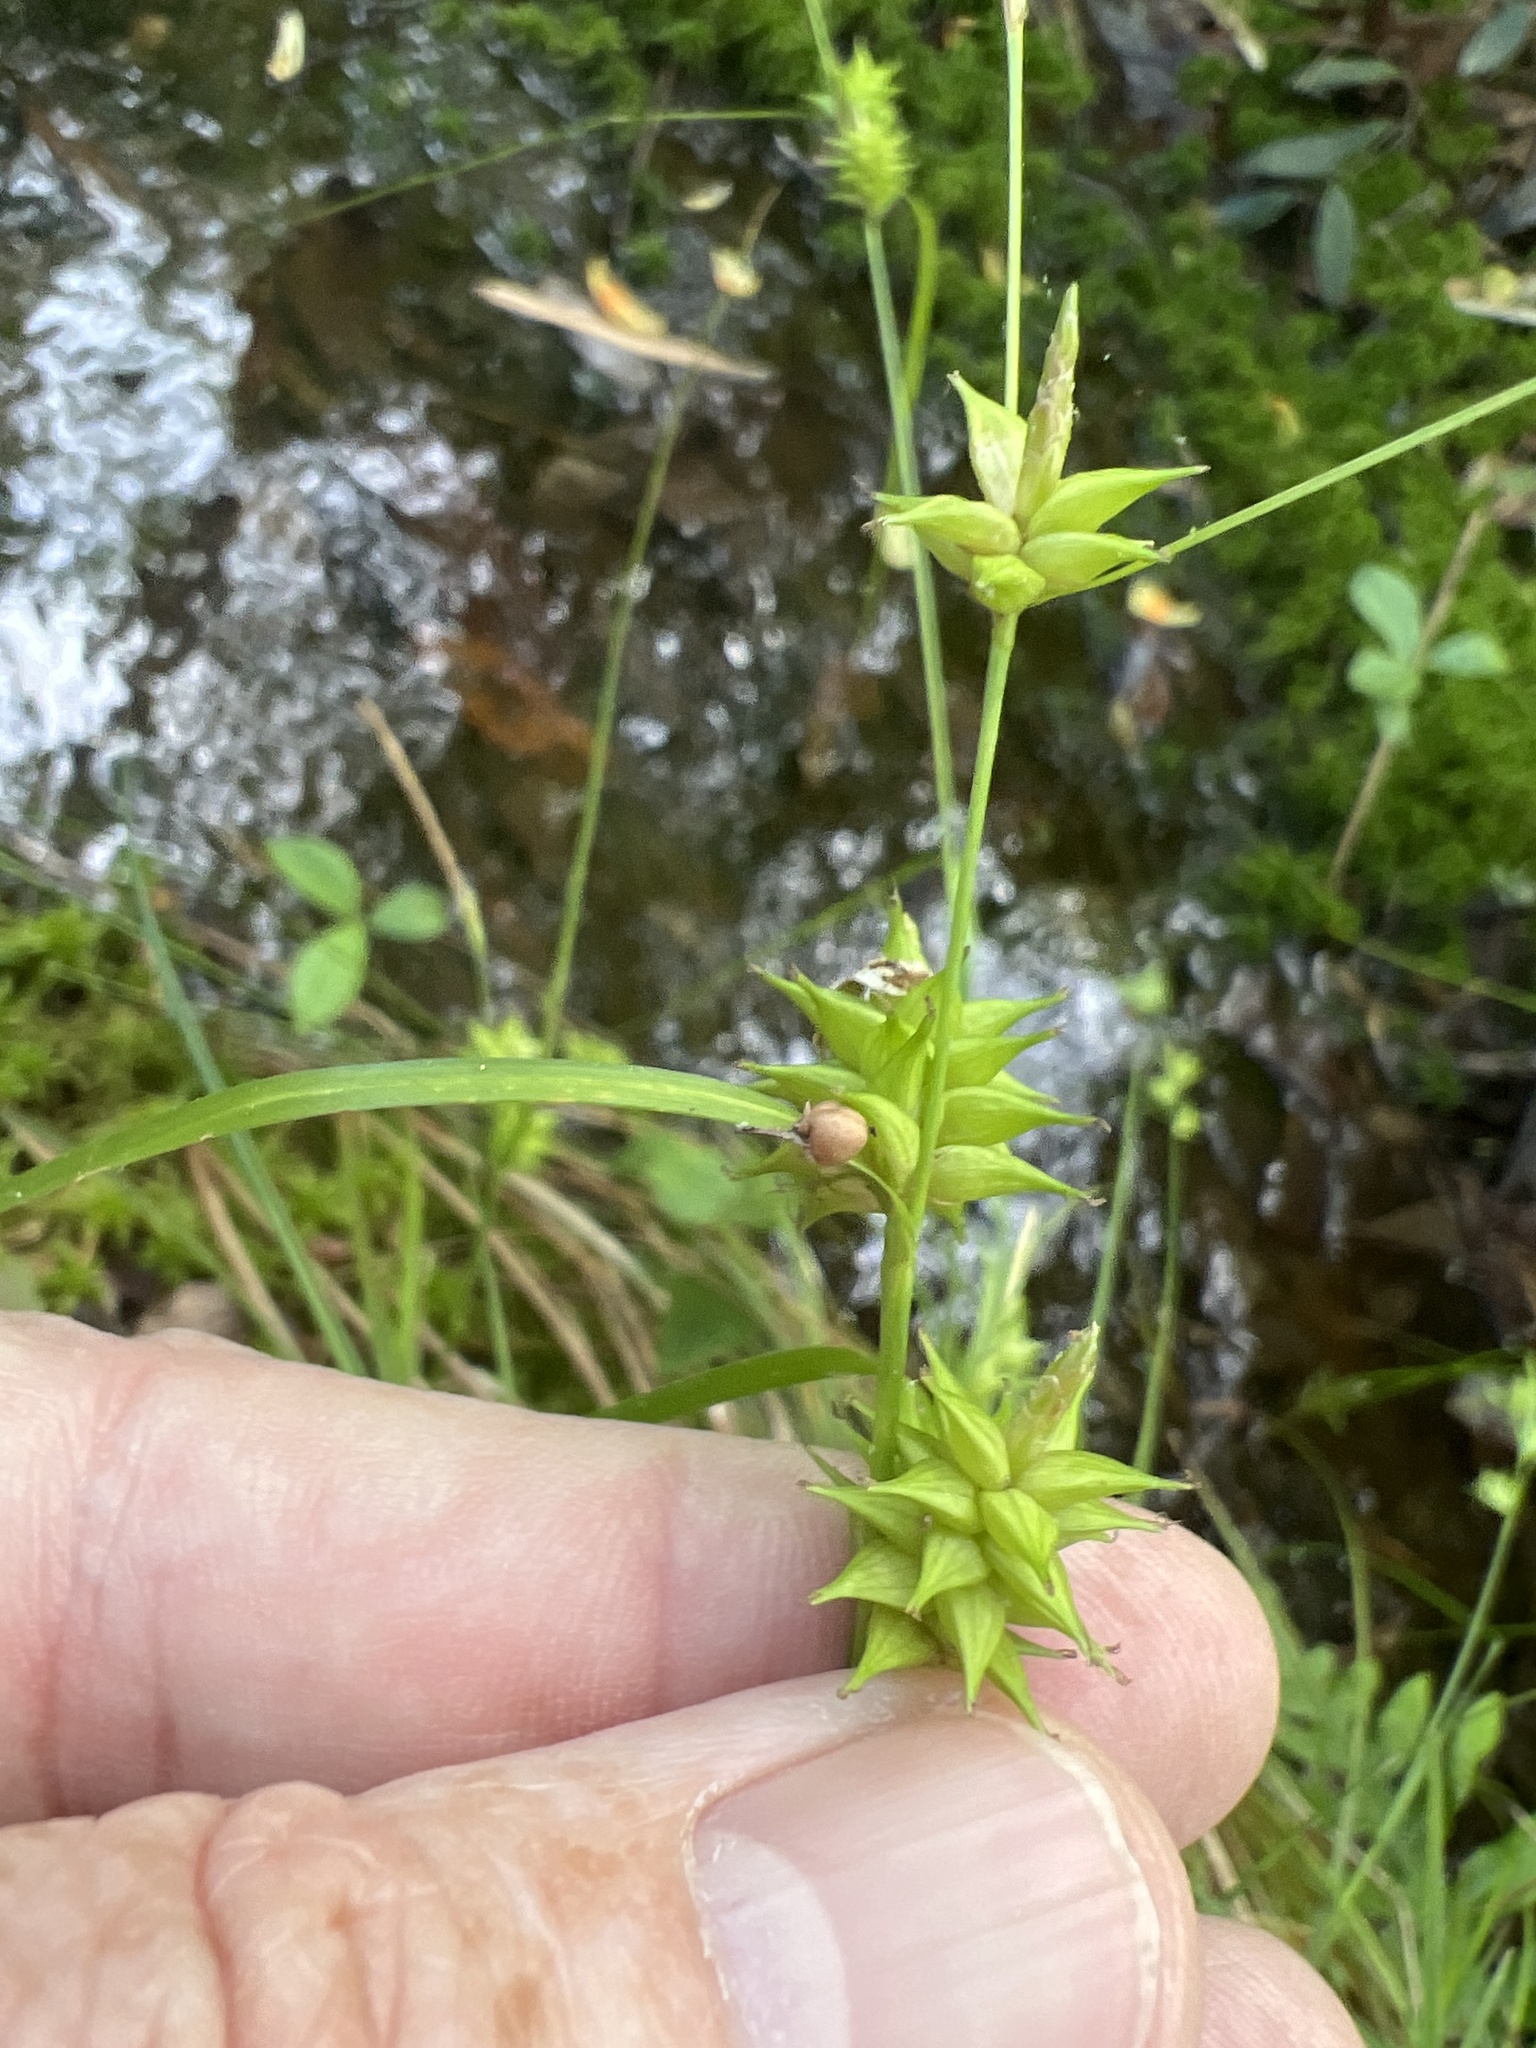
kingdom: Plantae
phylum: Tracheophyta
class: Liliopsida
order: Poales
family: Cyperaceae
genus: Carex
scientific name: Carex elliottii
